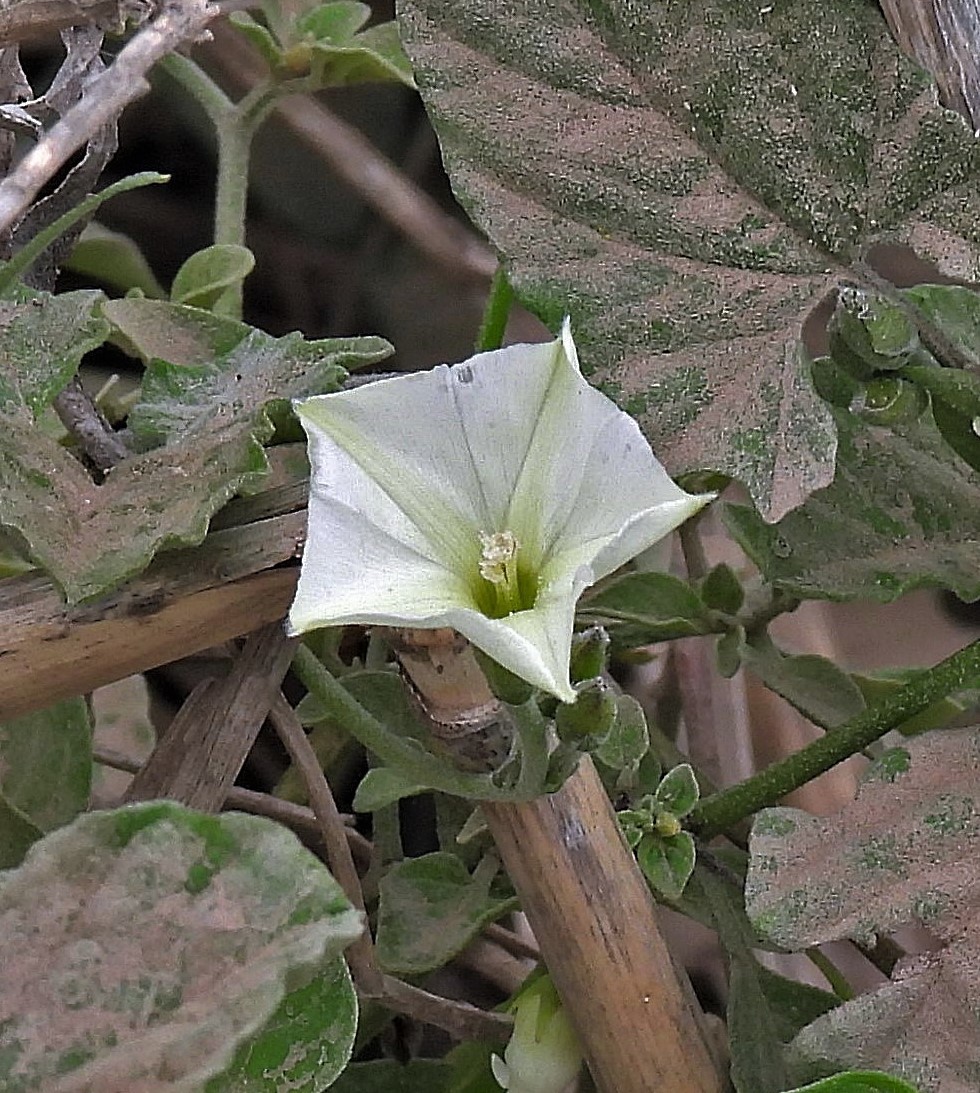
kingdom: Plantae
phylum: Tracheophyta
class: Magnoliopsida
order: Solanales
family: Convolvulaceae
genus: Convolvulus
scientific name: Convolvulus crenatifolius
